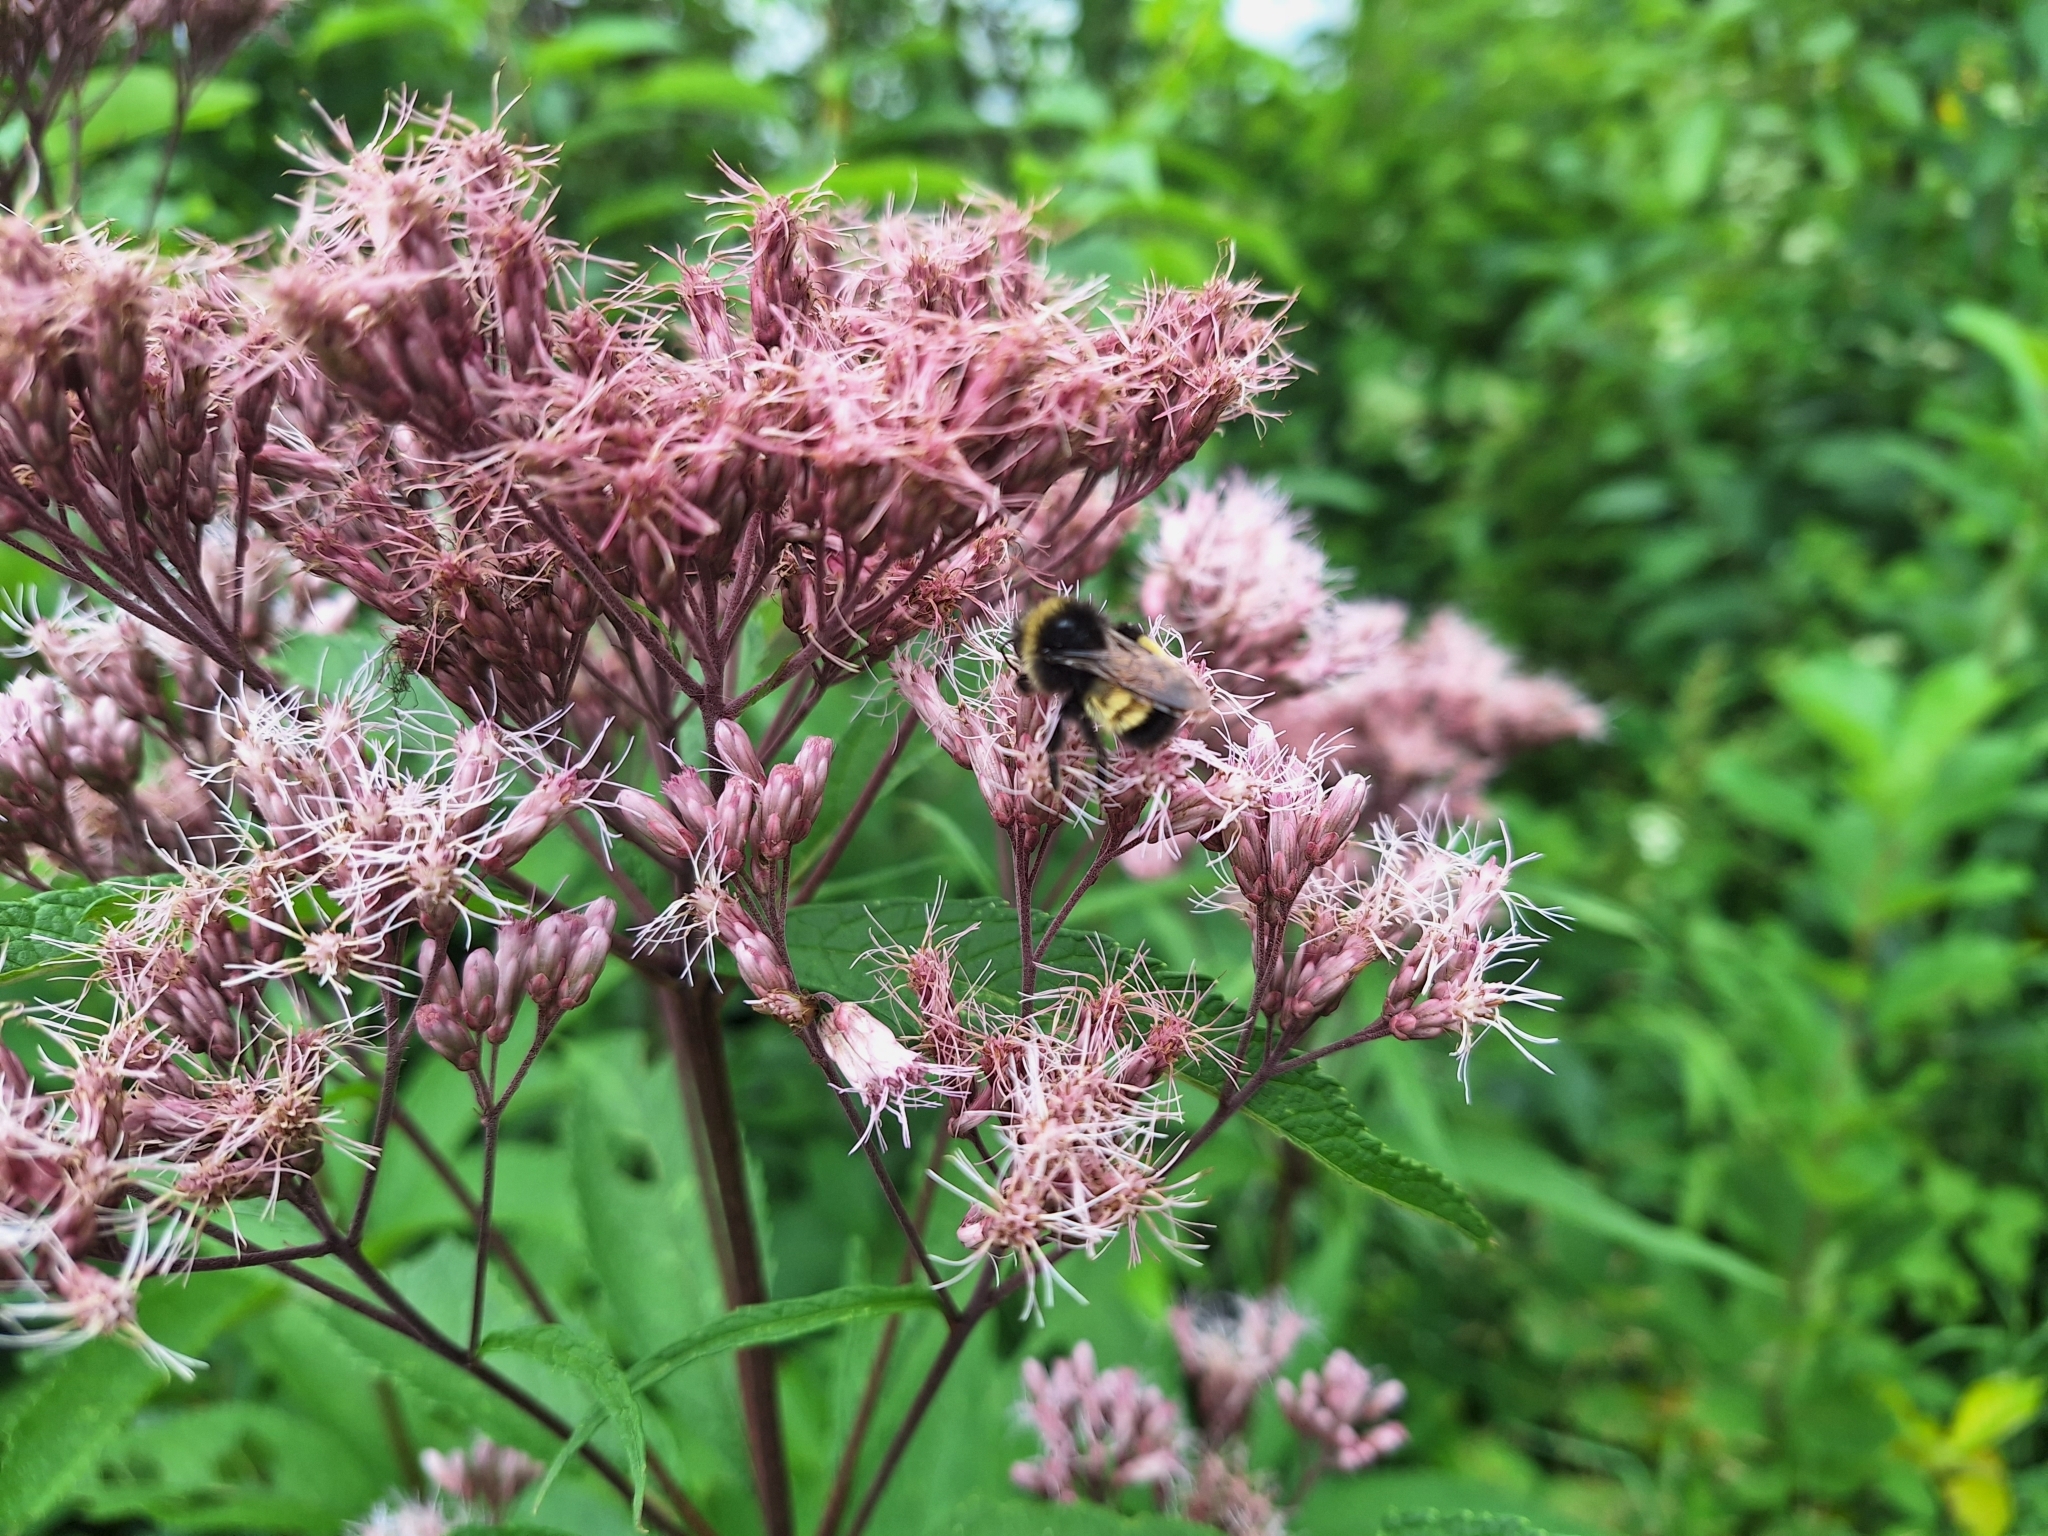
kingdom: Animalia
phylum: Arthropoda
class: Insecta
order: Hymenoptera
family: Apidae
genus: Bombus
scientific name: Bombus terricola
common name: Yellow-banded bumble bee
